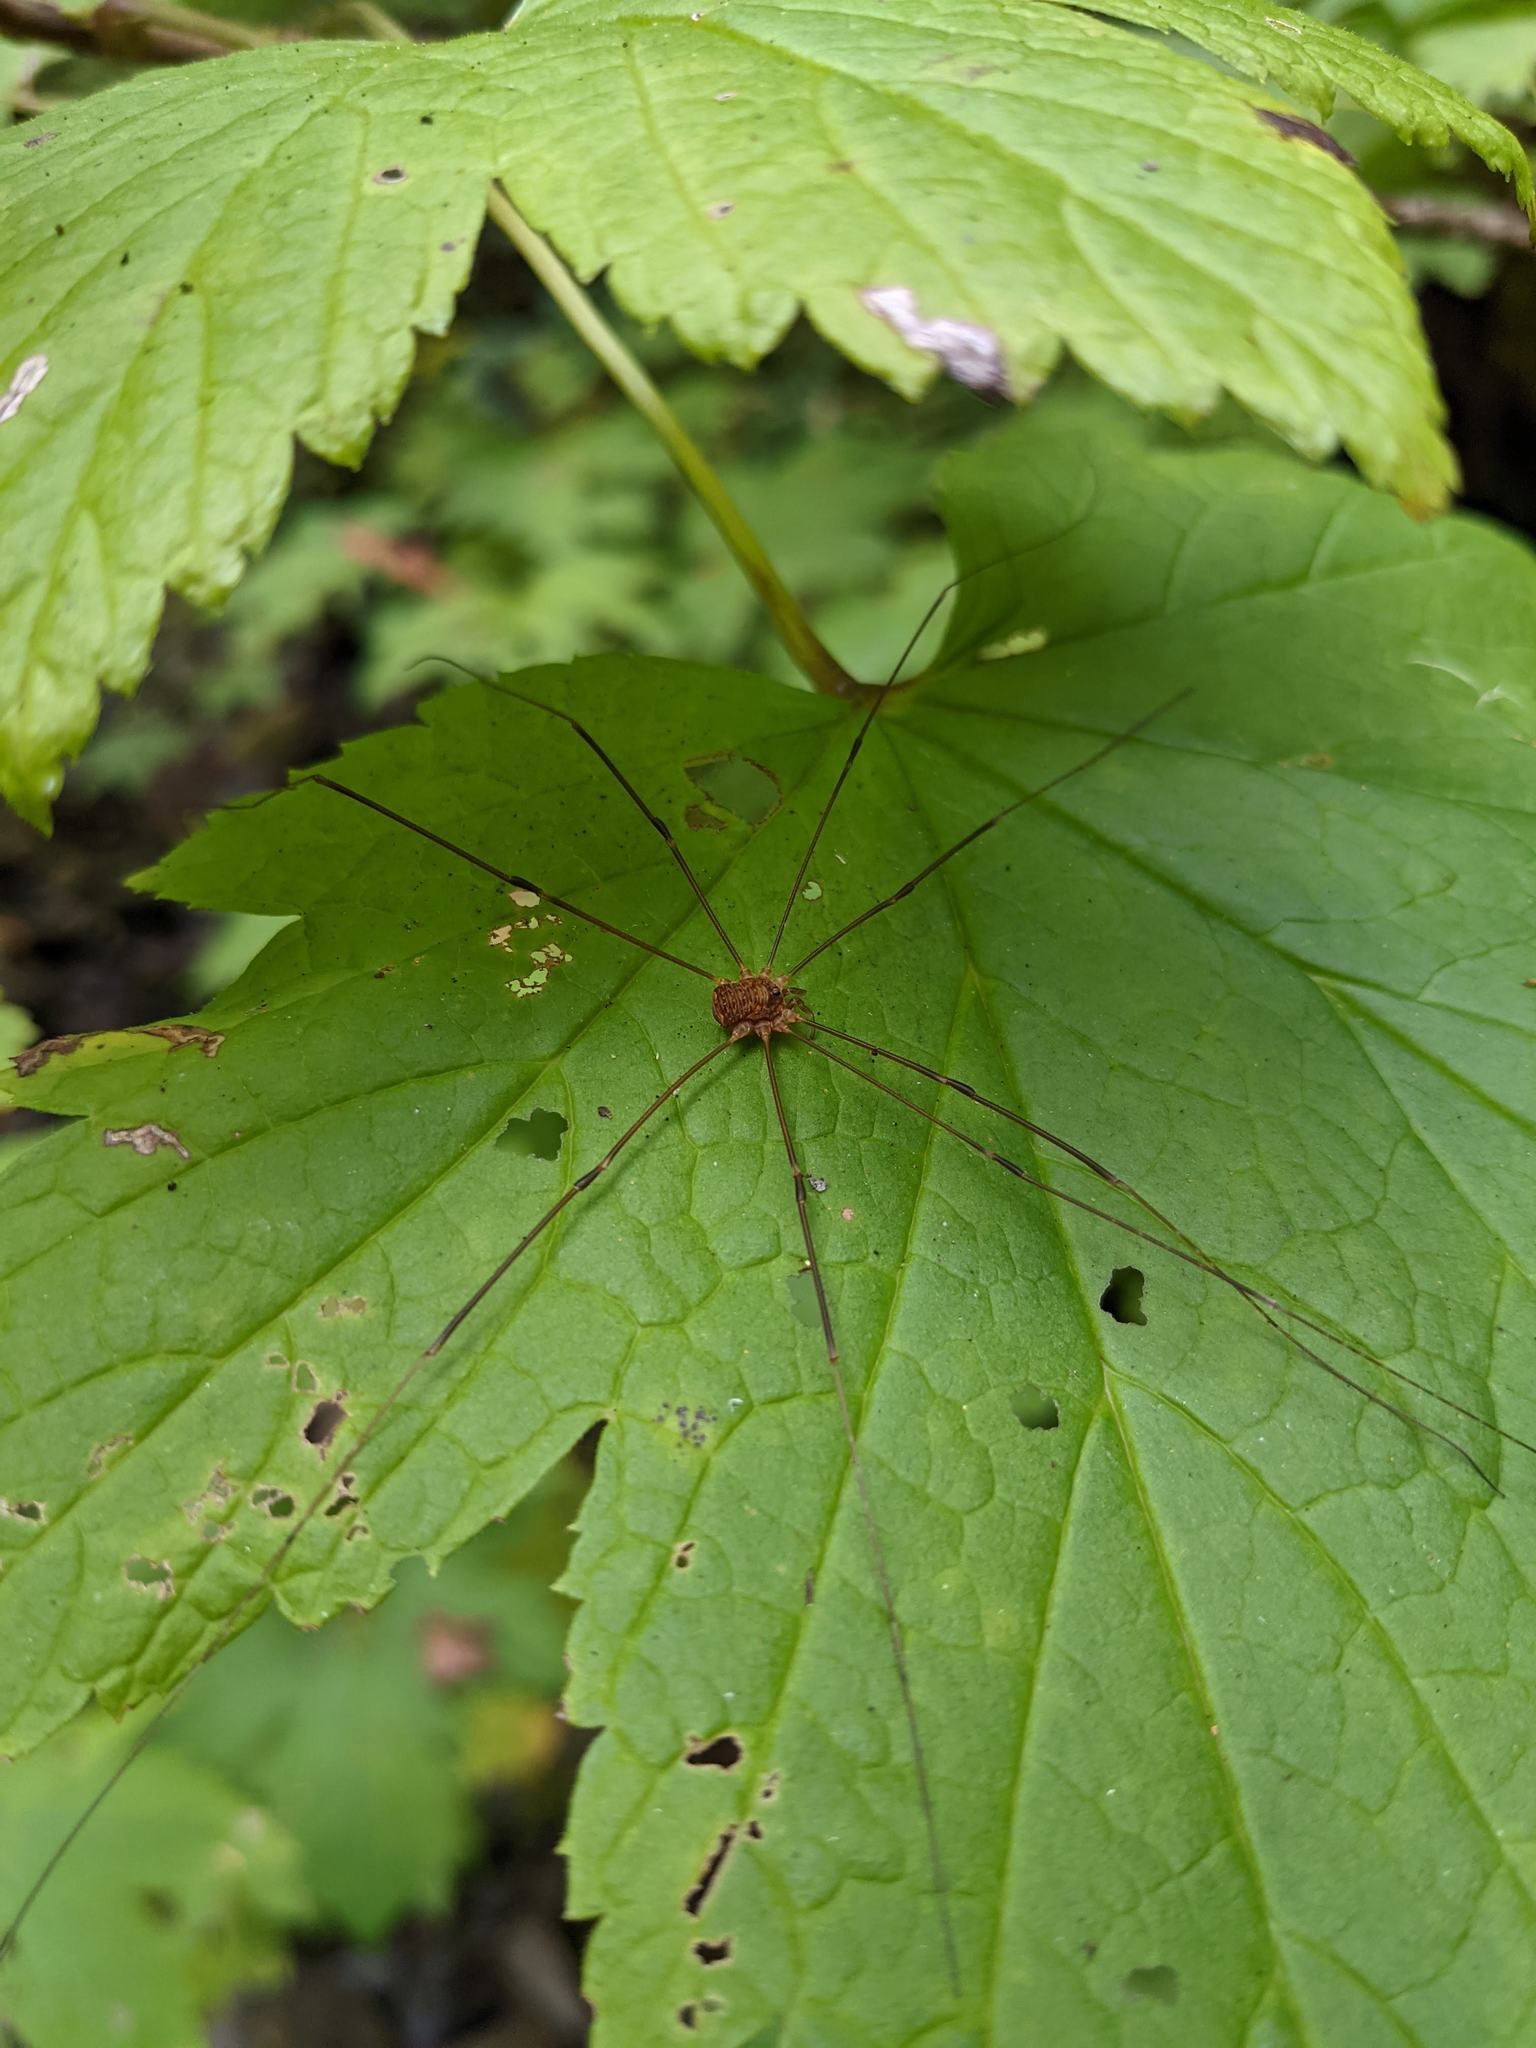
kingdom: Animalia
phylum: Arthropoda
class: Arachnida
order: Opiliones
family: Sclerosomatidae
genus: Nelima
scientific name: Nelima paessleri
